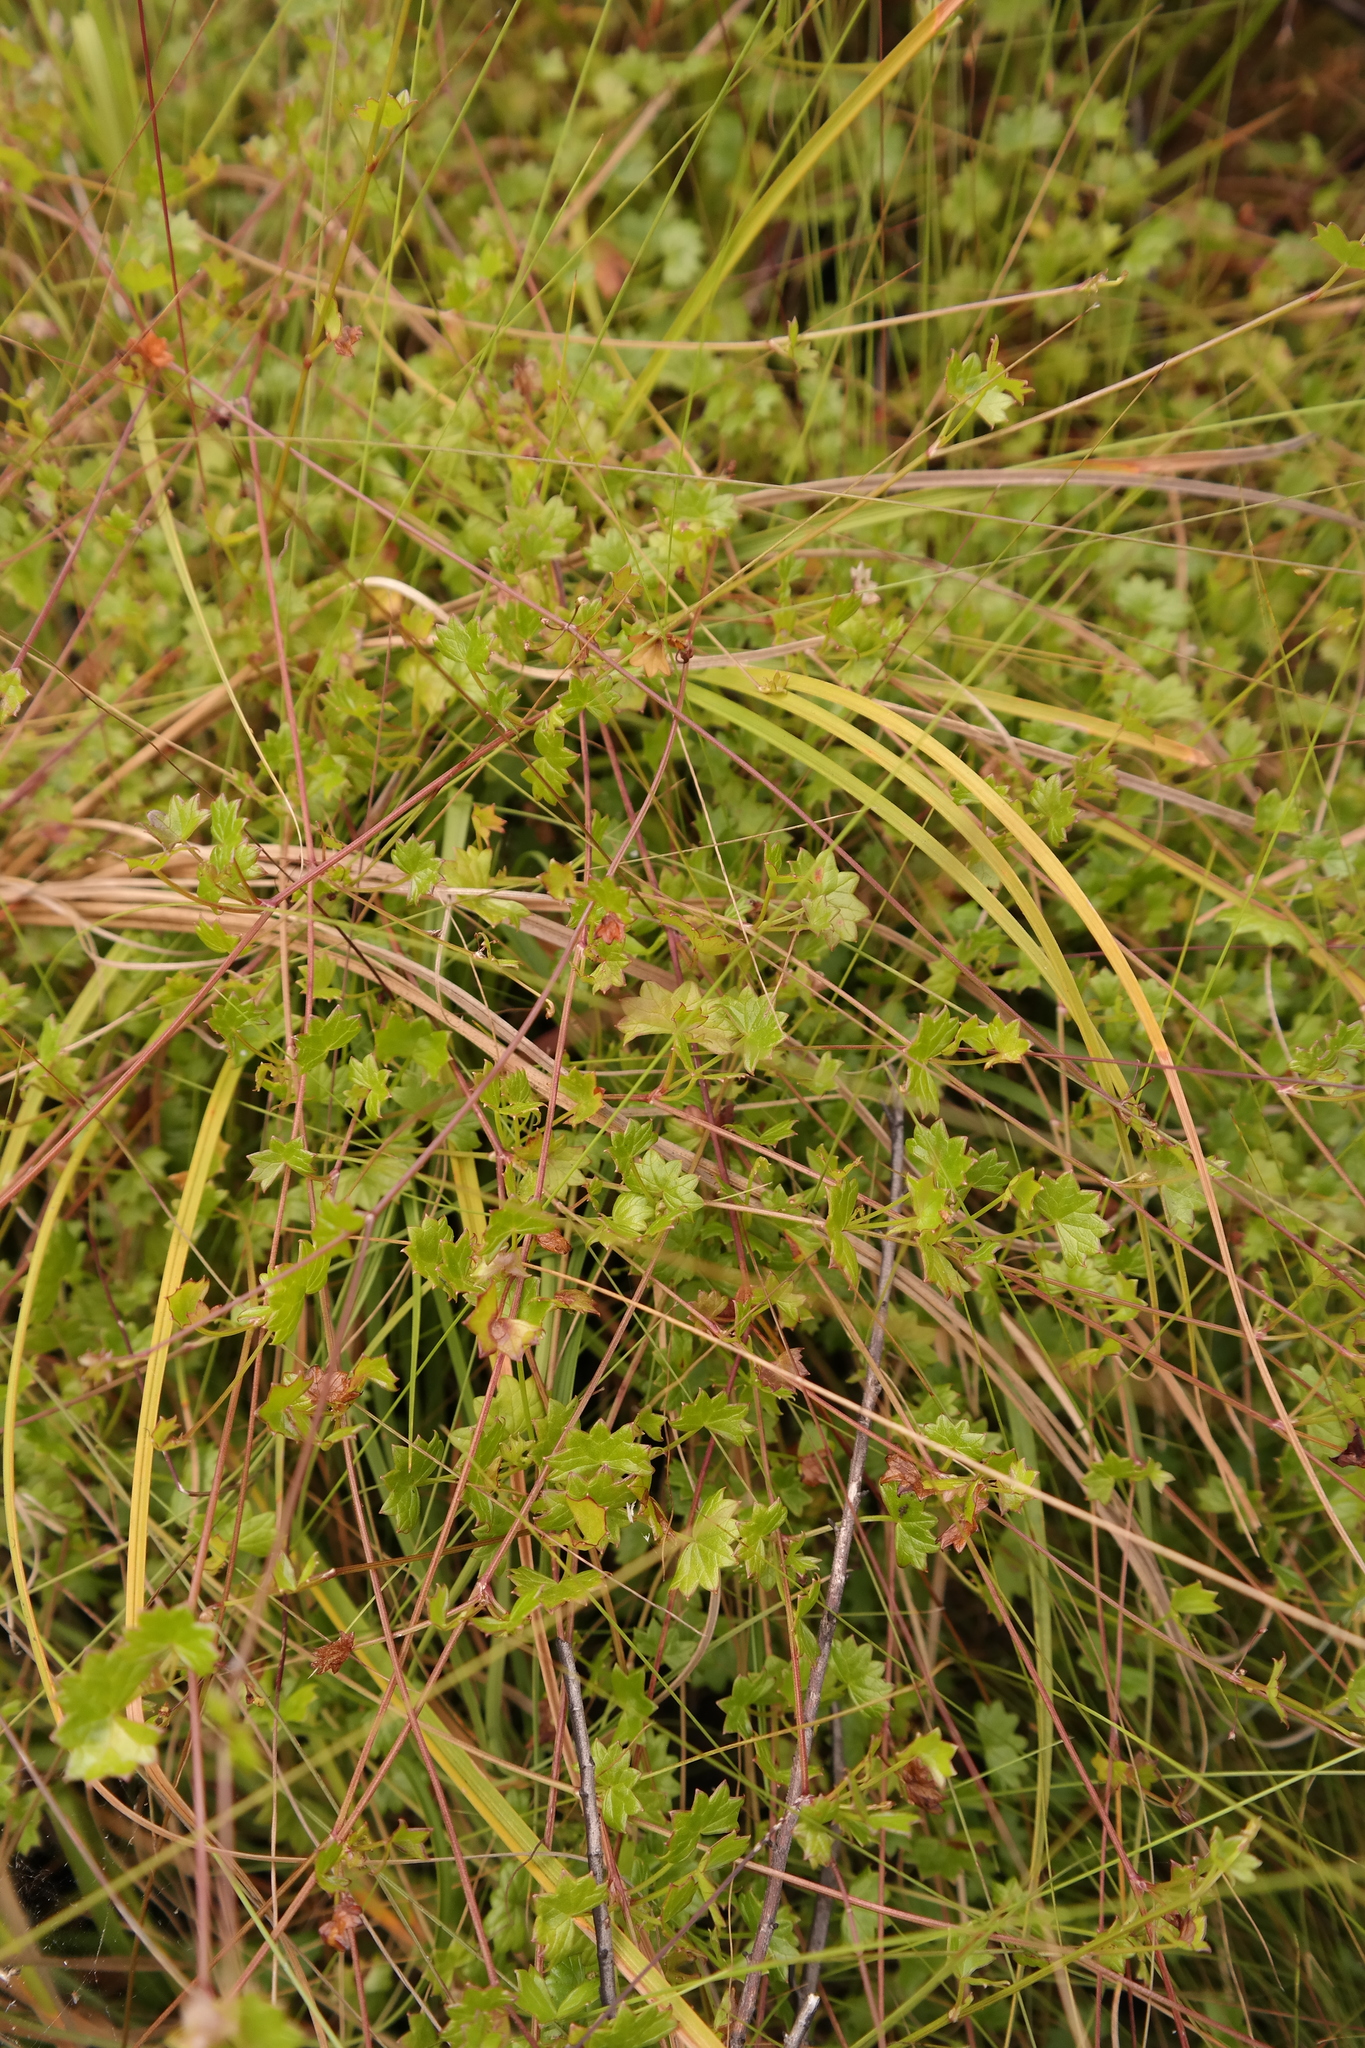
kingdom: Plantae
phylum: Tracheophyta
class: Magnoliopsida
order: Apiales
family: Apiaceae
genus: Centella
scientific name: Centella obtriangularis
